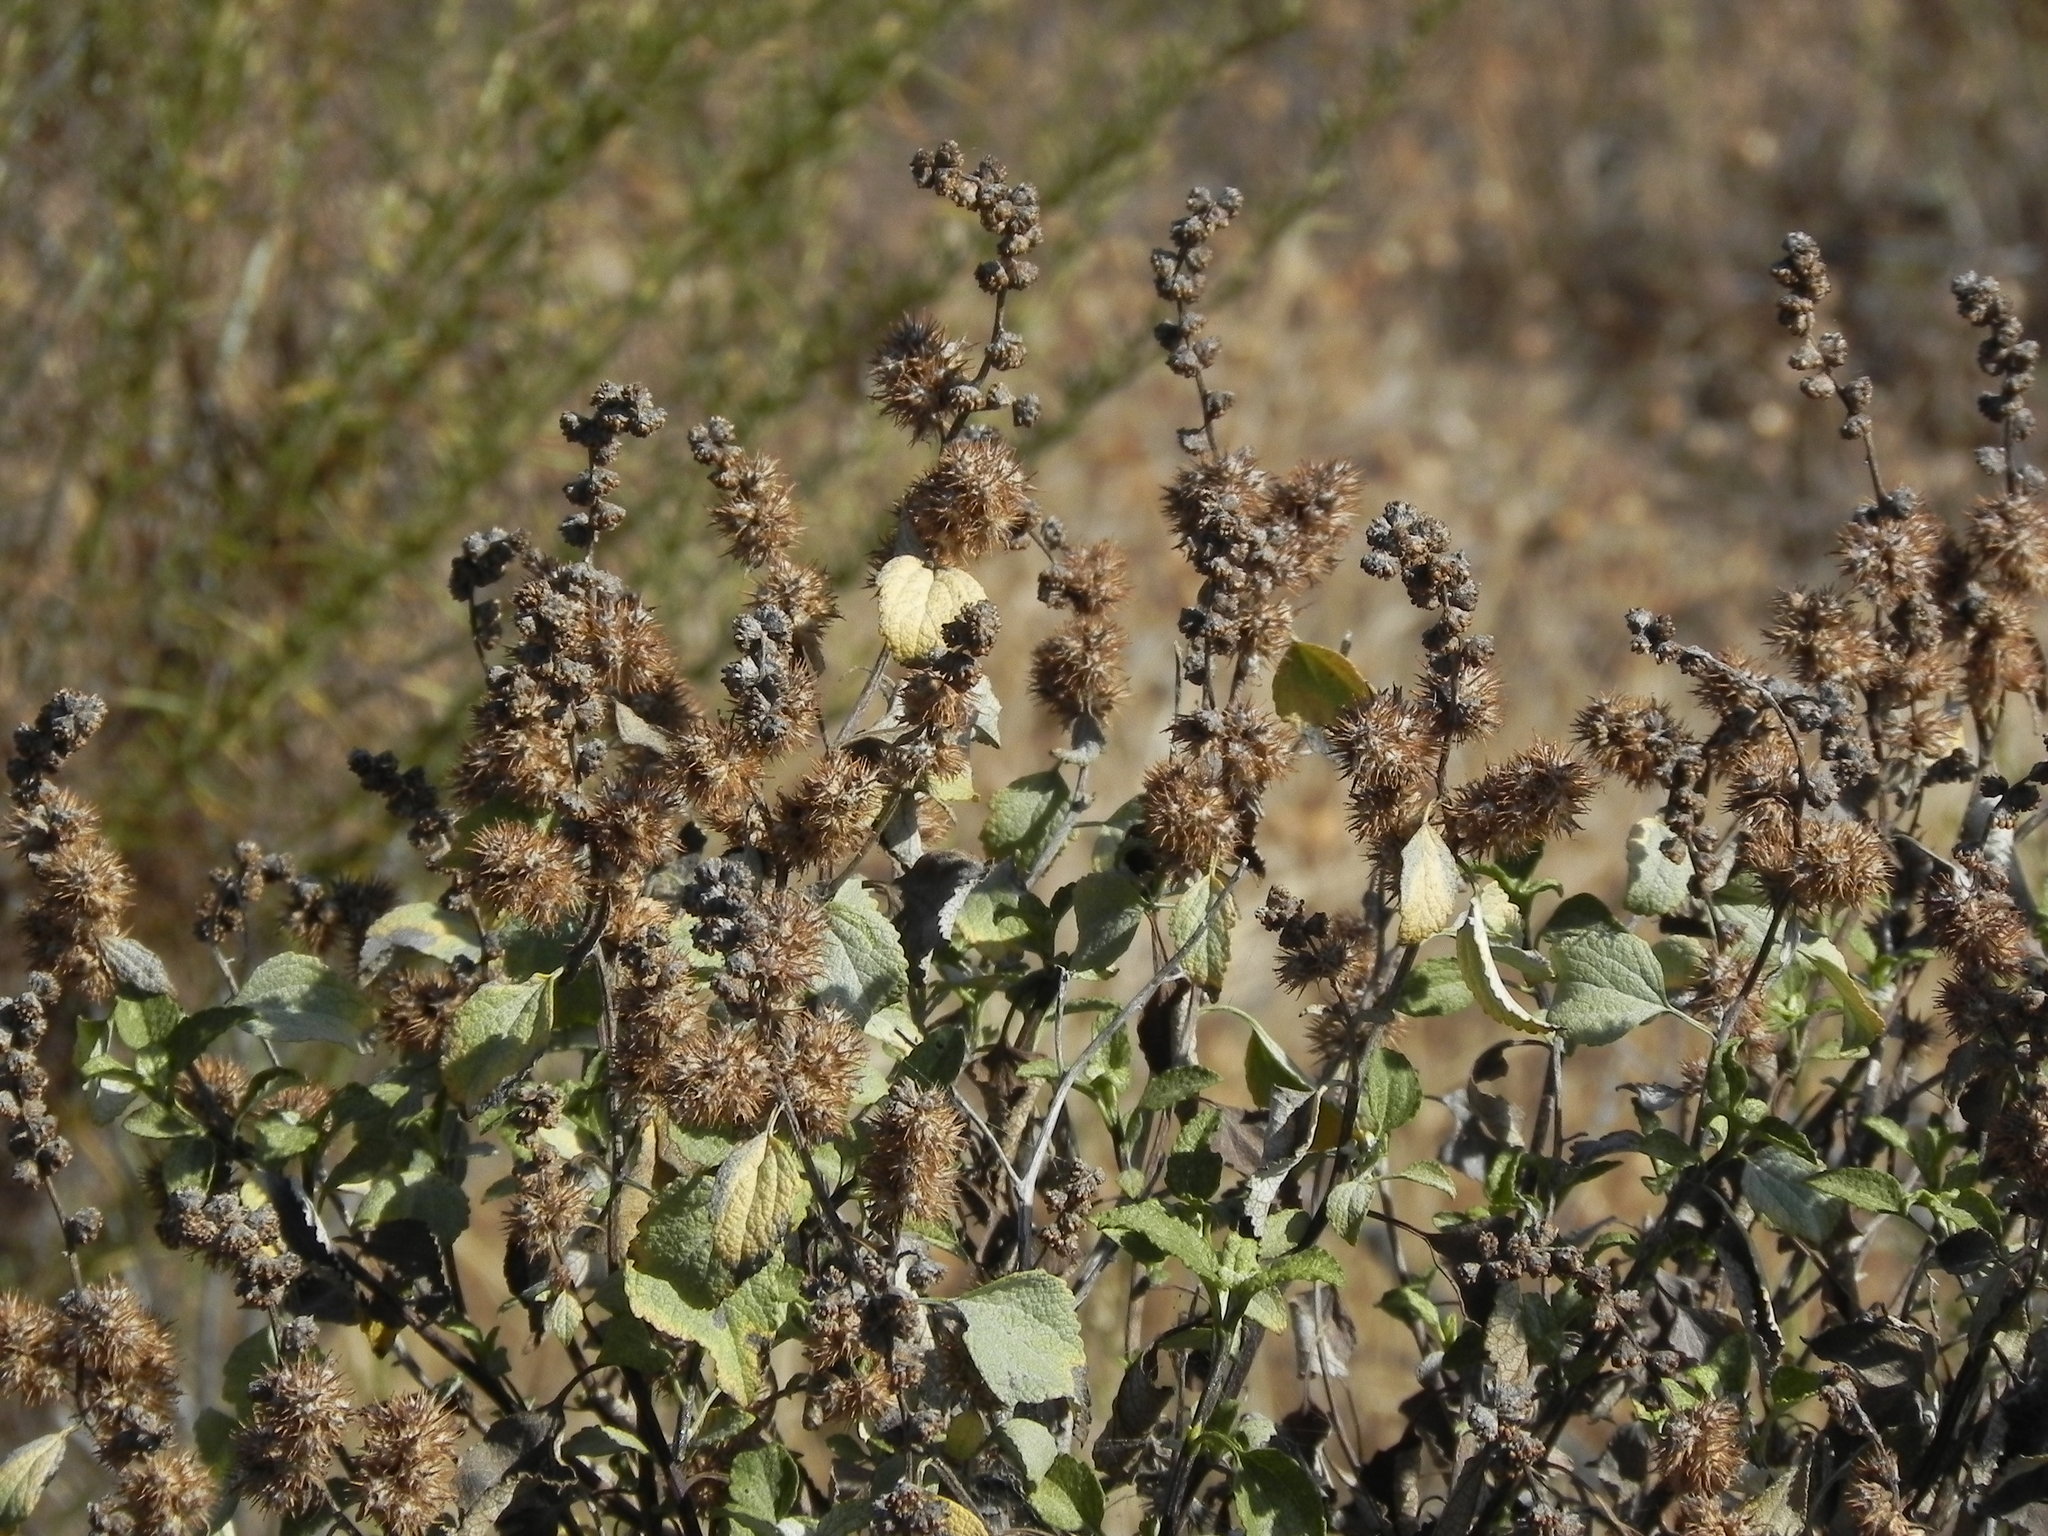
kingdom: Plantae
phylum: Tracheophyta
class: Magnoliopsida
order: Asterales
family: Asteraceae
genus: Ambrosia
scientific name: Ambrosia chenopodiifolia
